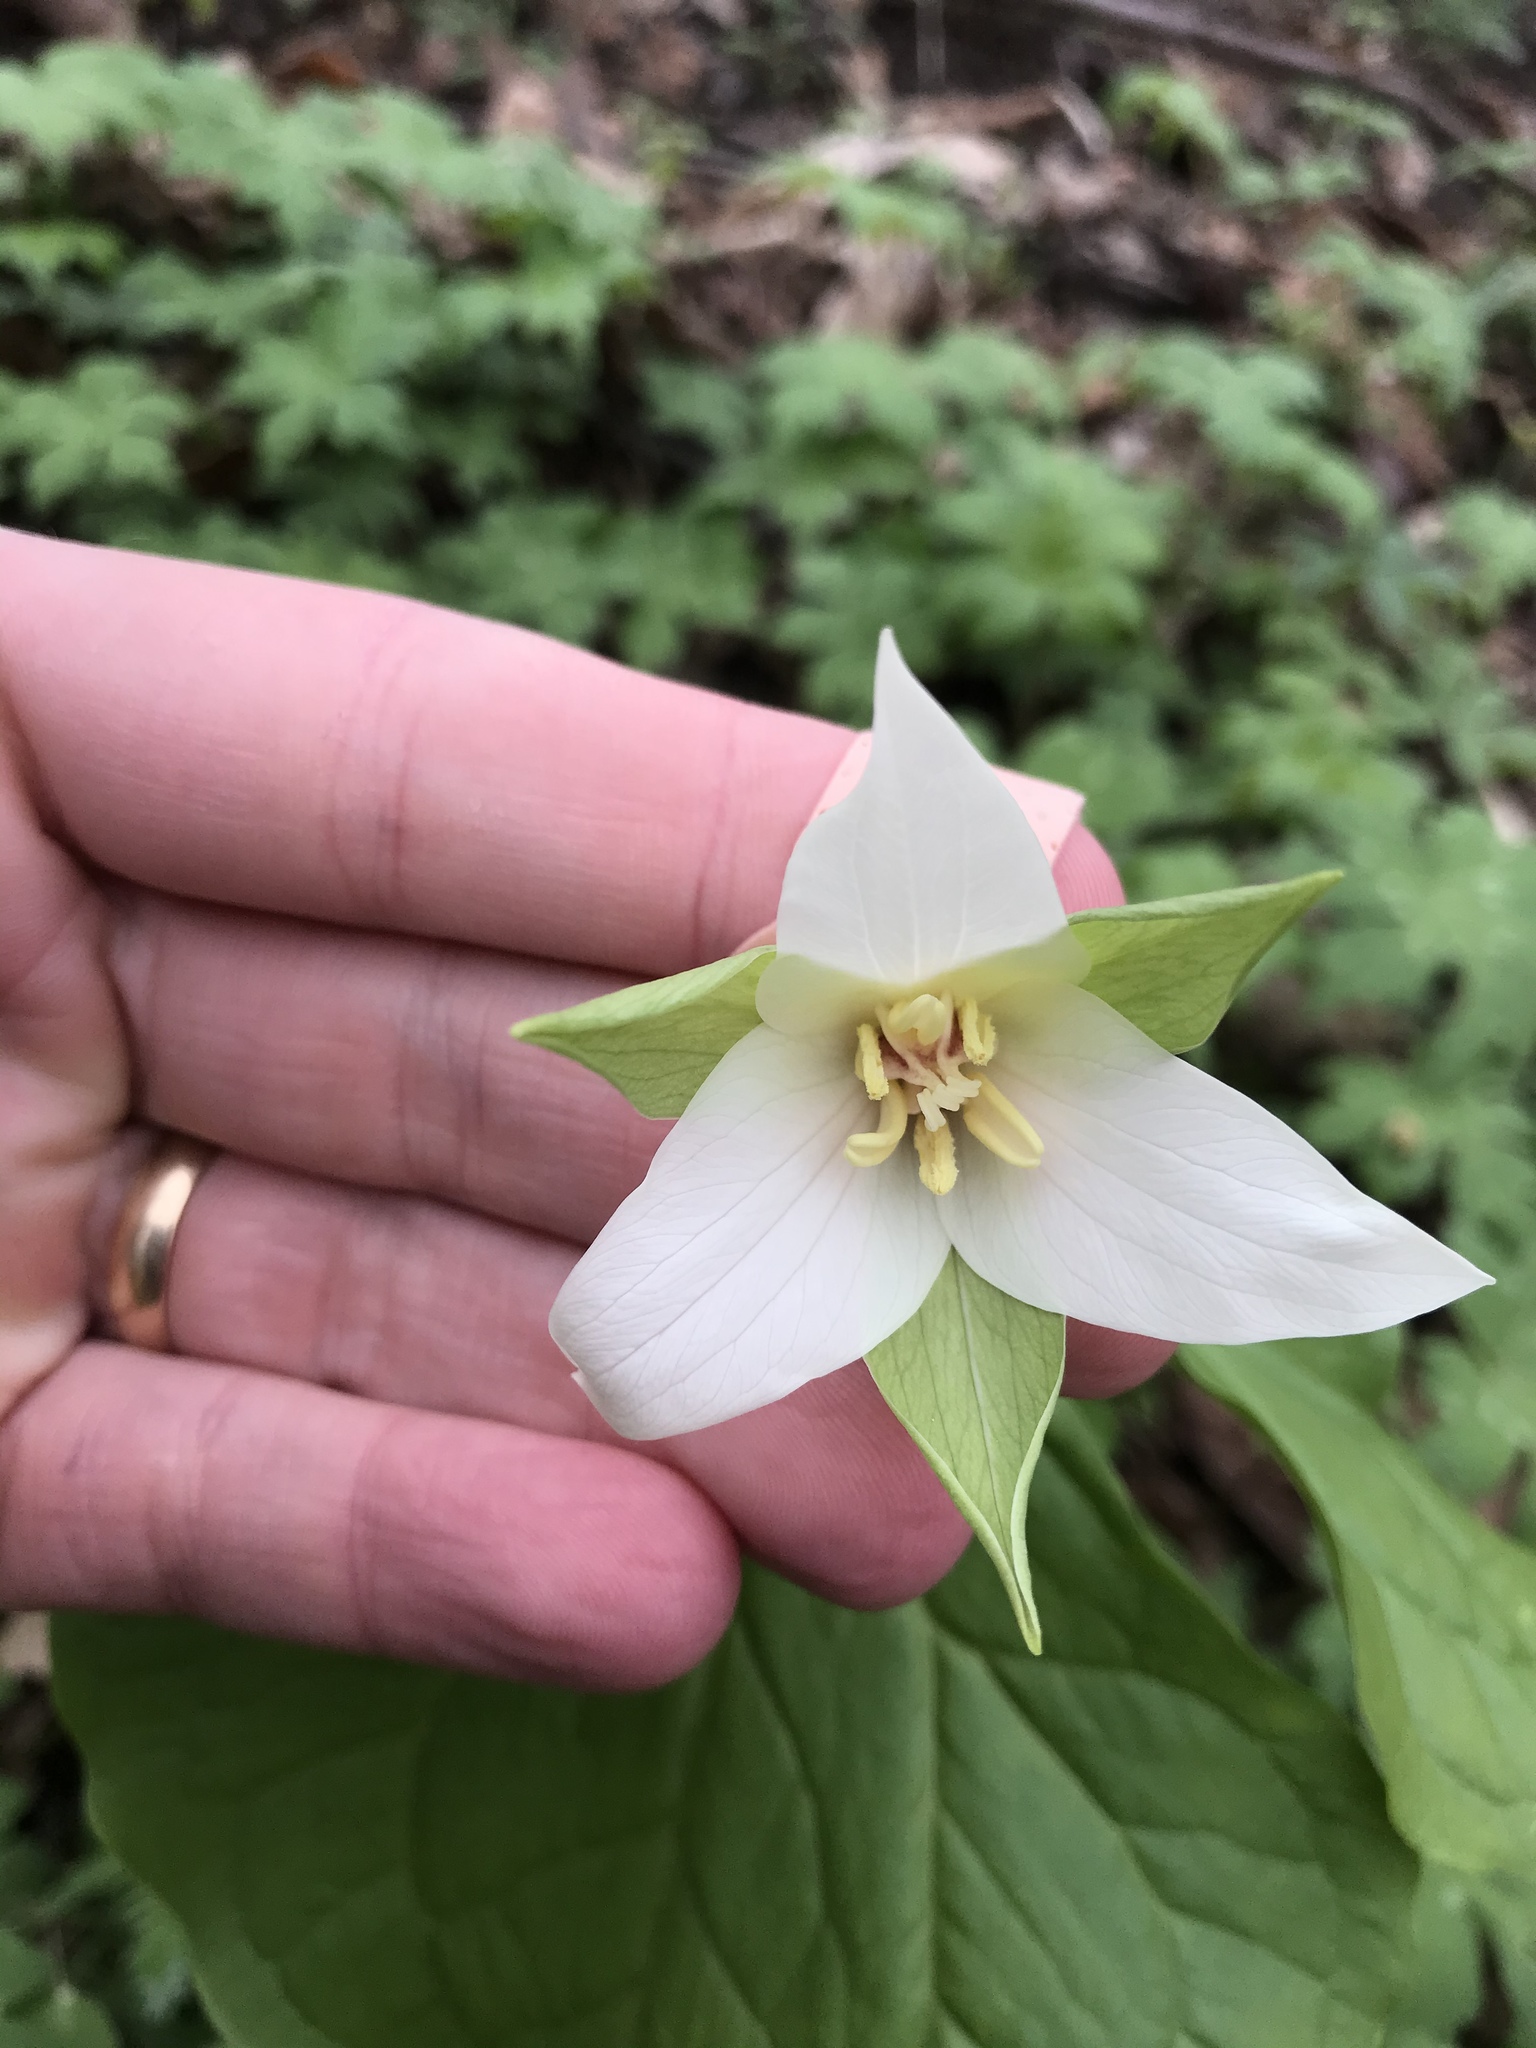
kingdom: Plantae
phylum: Tracheophyta
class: Liliopsida
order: Liliales
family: Melanthiaceae
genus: Trillium
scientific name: Trillium erectum
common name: Purple trillium
